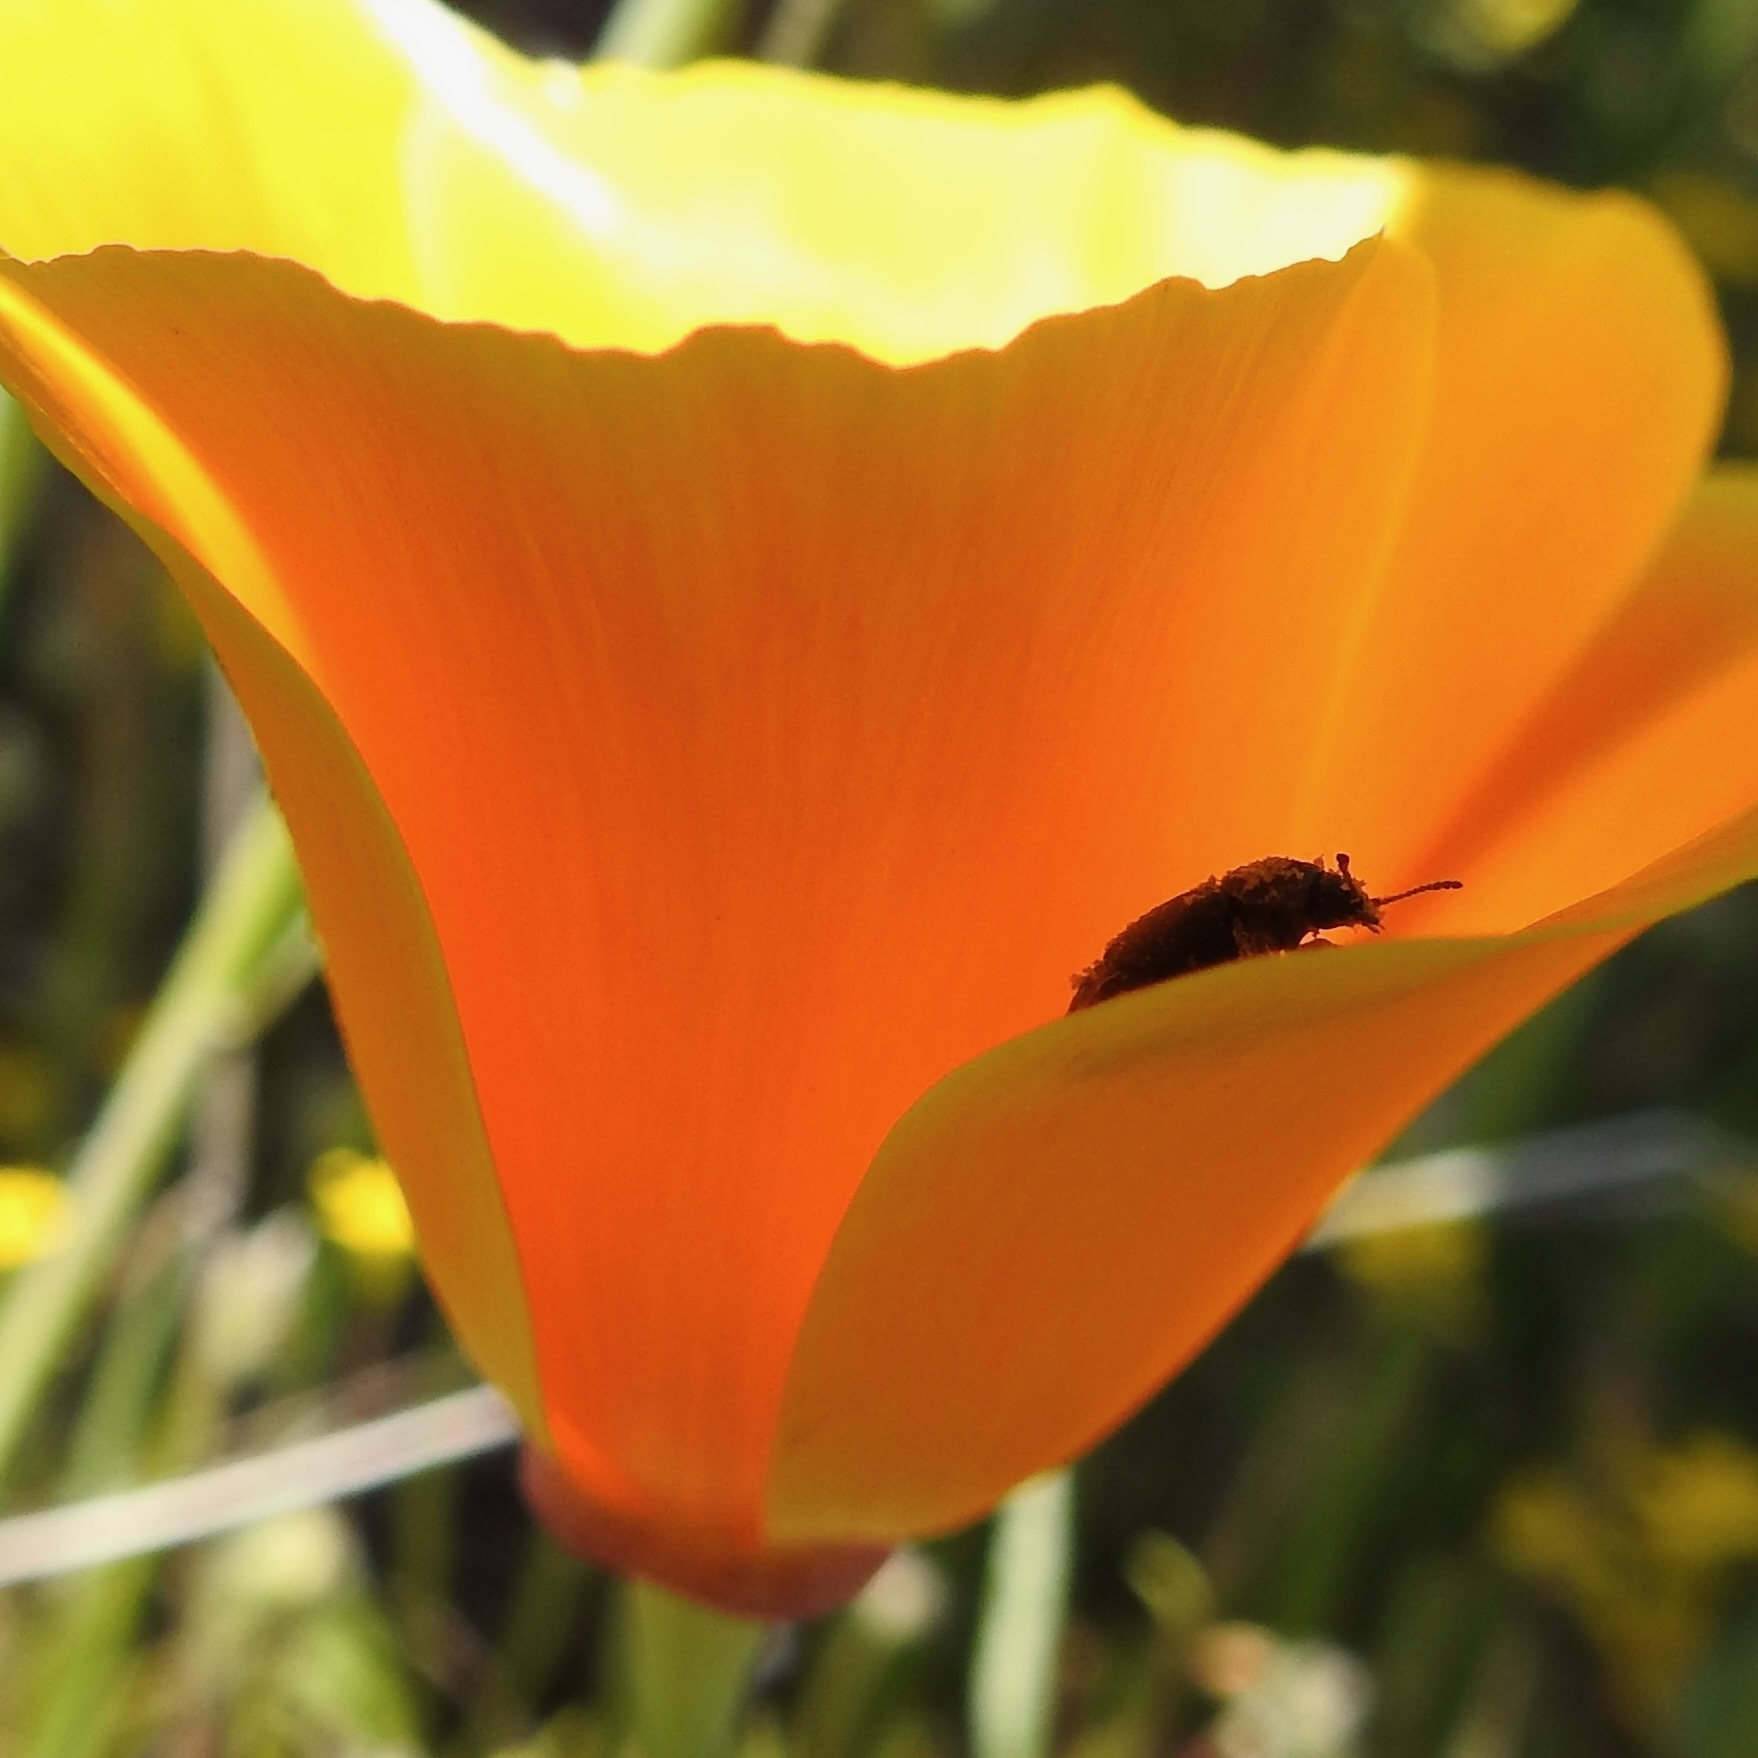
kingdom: Plantae
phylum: Tracheophyta
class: Magnoliopsida
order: Ranunculales
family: Papaveraceae
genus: Eschscholzia
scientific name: Eschscholzia californica
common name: California poppy
